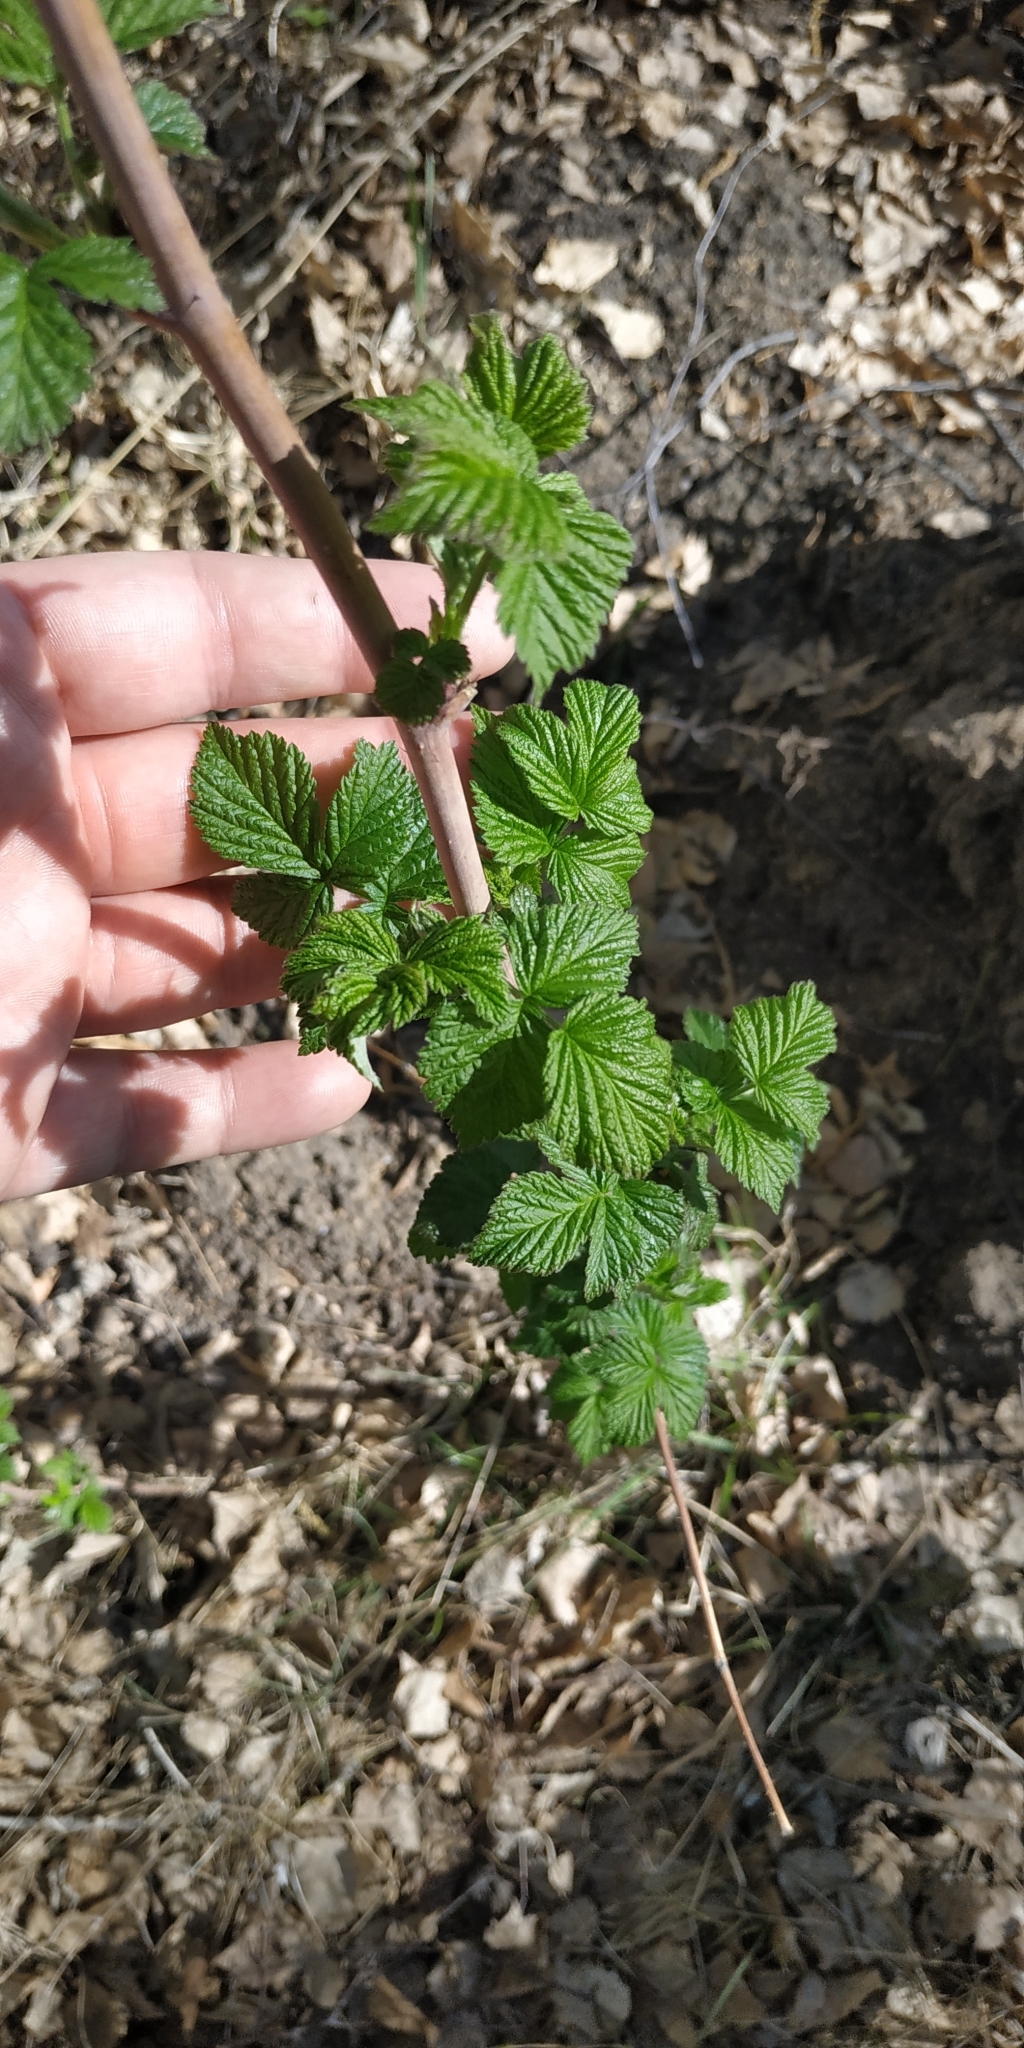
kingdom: Plantae
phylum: Tracheophyta
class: Magnoliopsida
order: Rosales
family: Rosaceae
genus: Rubus
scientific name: Rubus idaeus
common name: Raspberry
